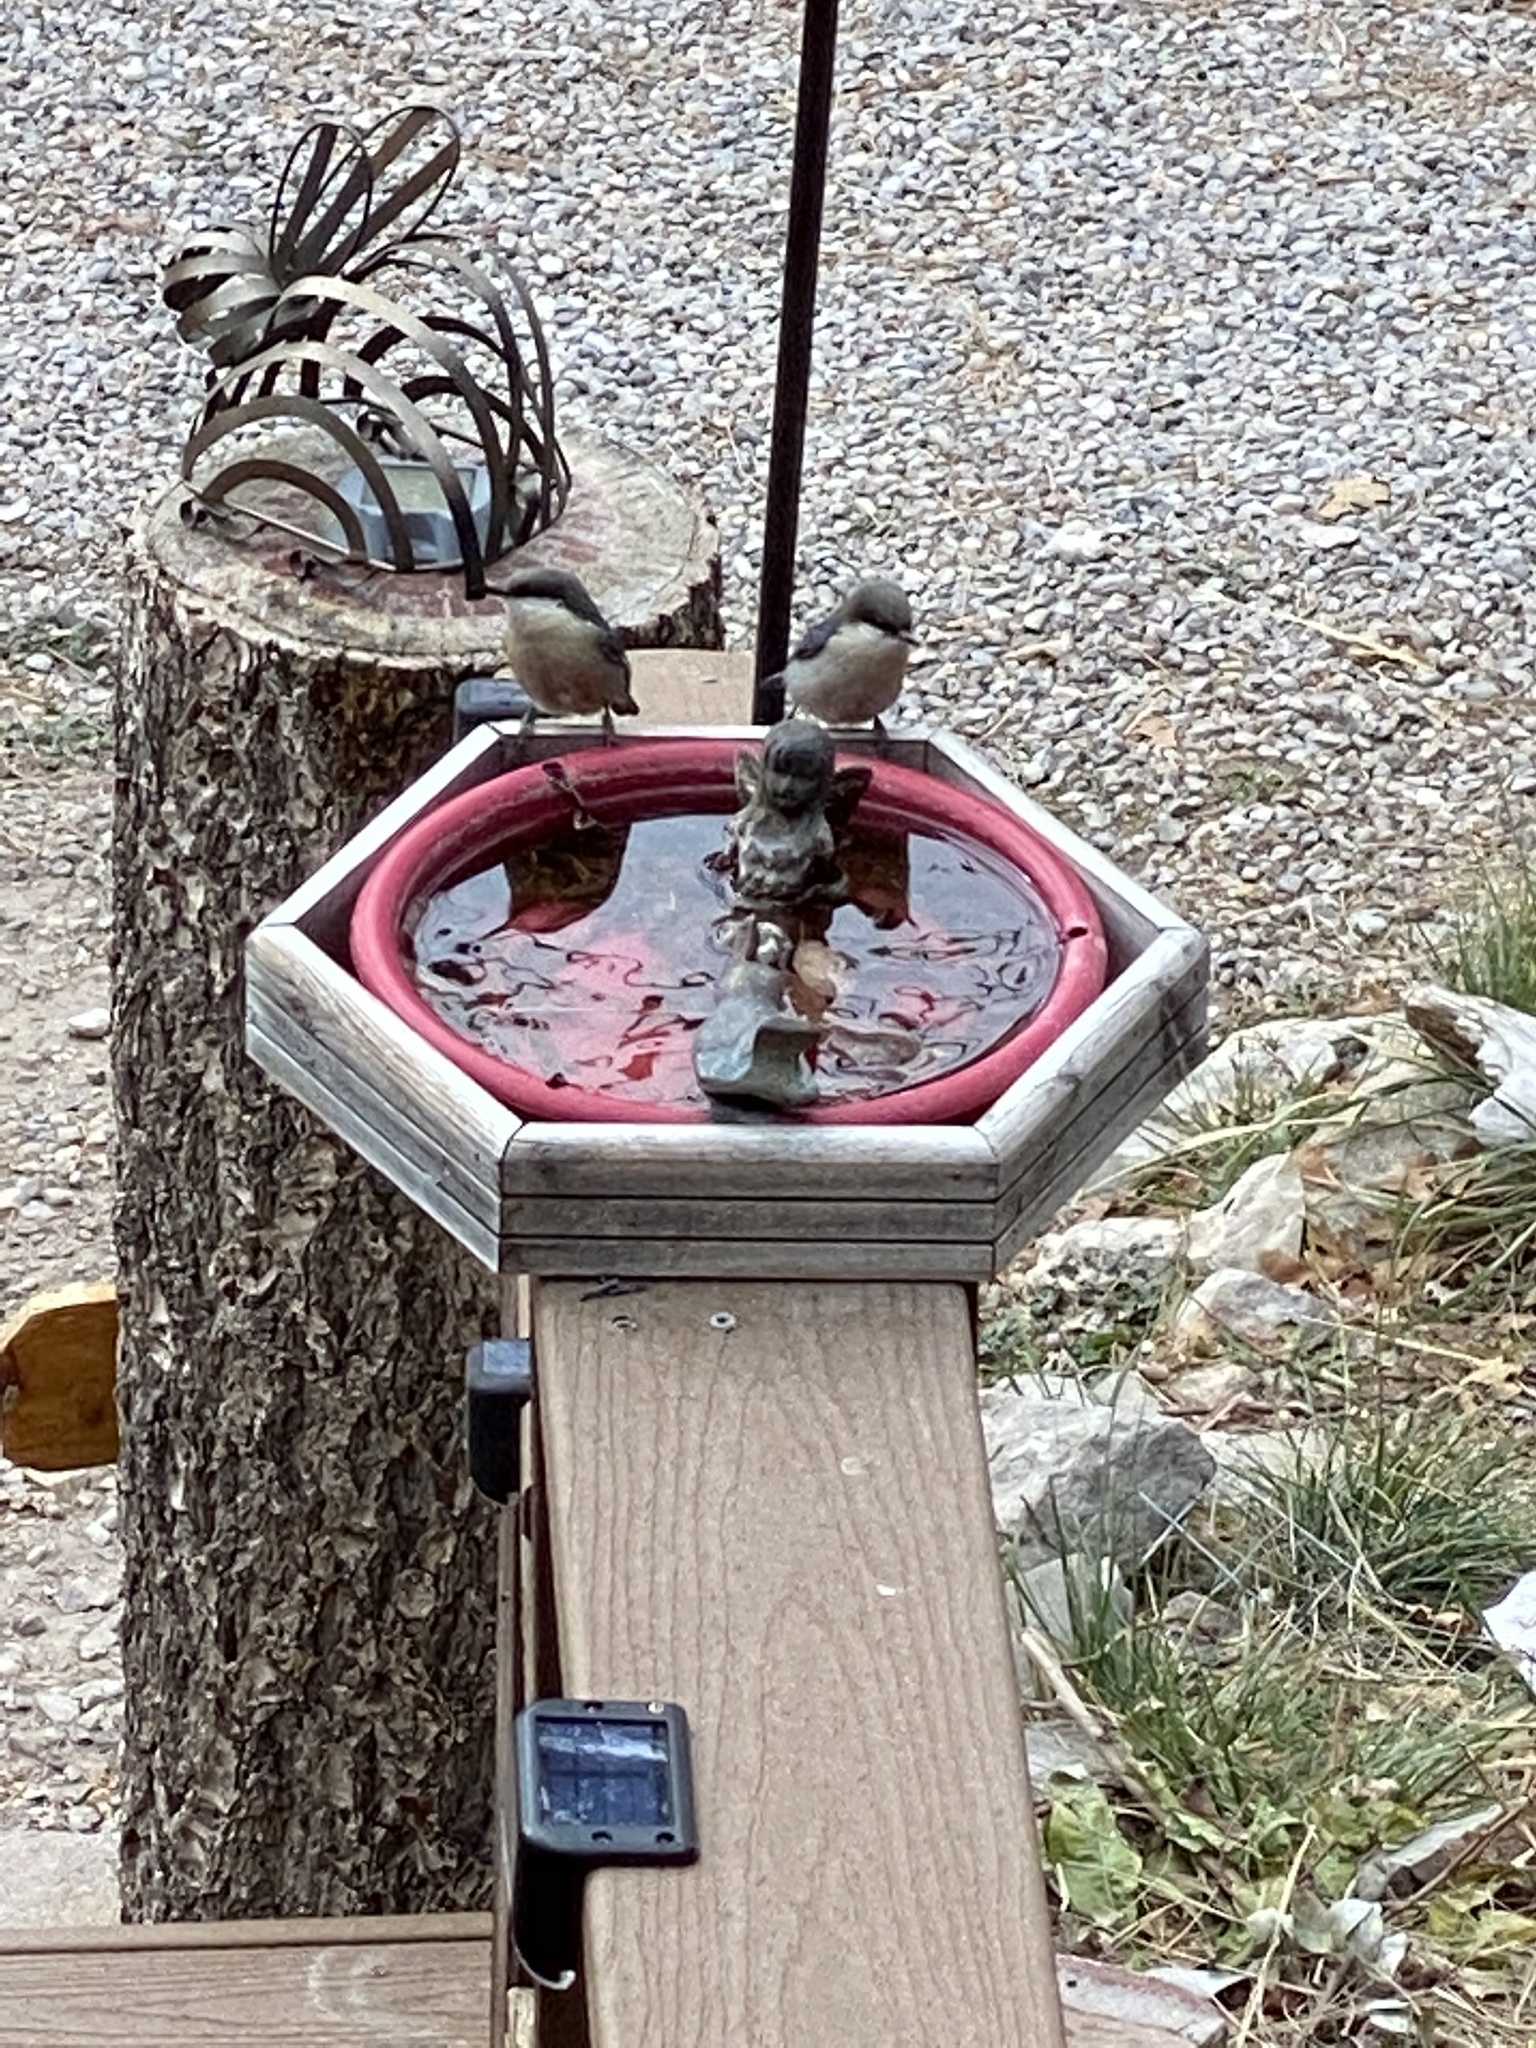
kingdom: Animalia
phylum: Chordata
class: Aves
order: Passeriformes
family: Sittidae
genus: Sitta
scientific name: Sitta pygmaea
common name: Pygmy nuthatch
